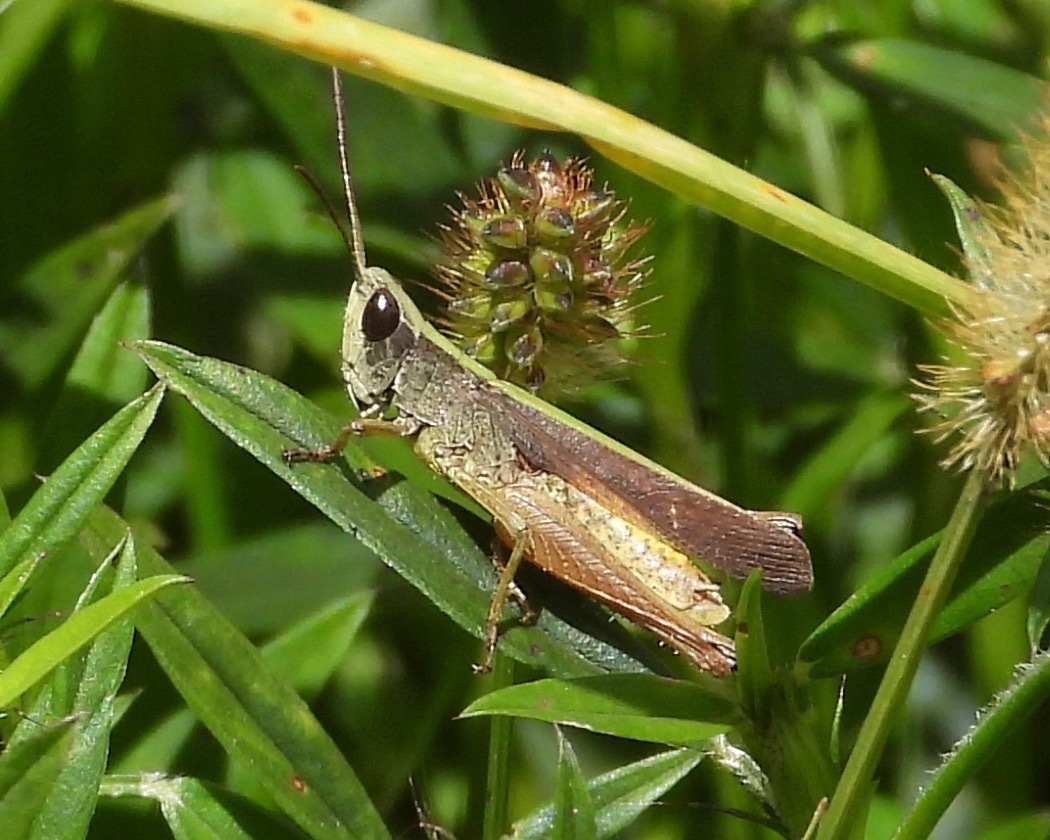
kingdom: Animalia
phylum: Arthropoda
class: Insecta
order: Orthoptera
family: Acrididae
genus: Orphula
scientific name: Orphula azteca
